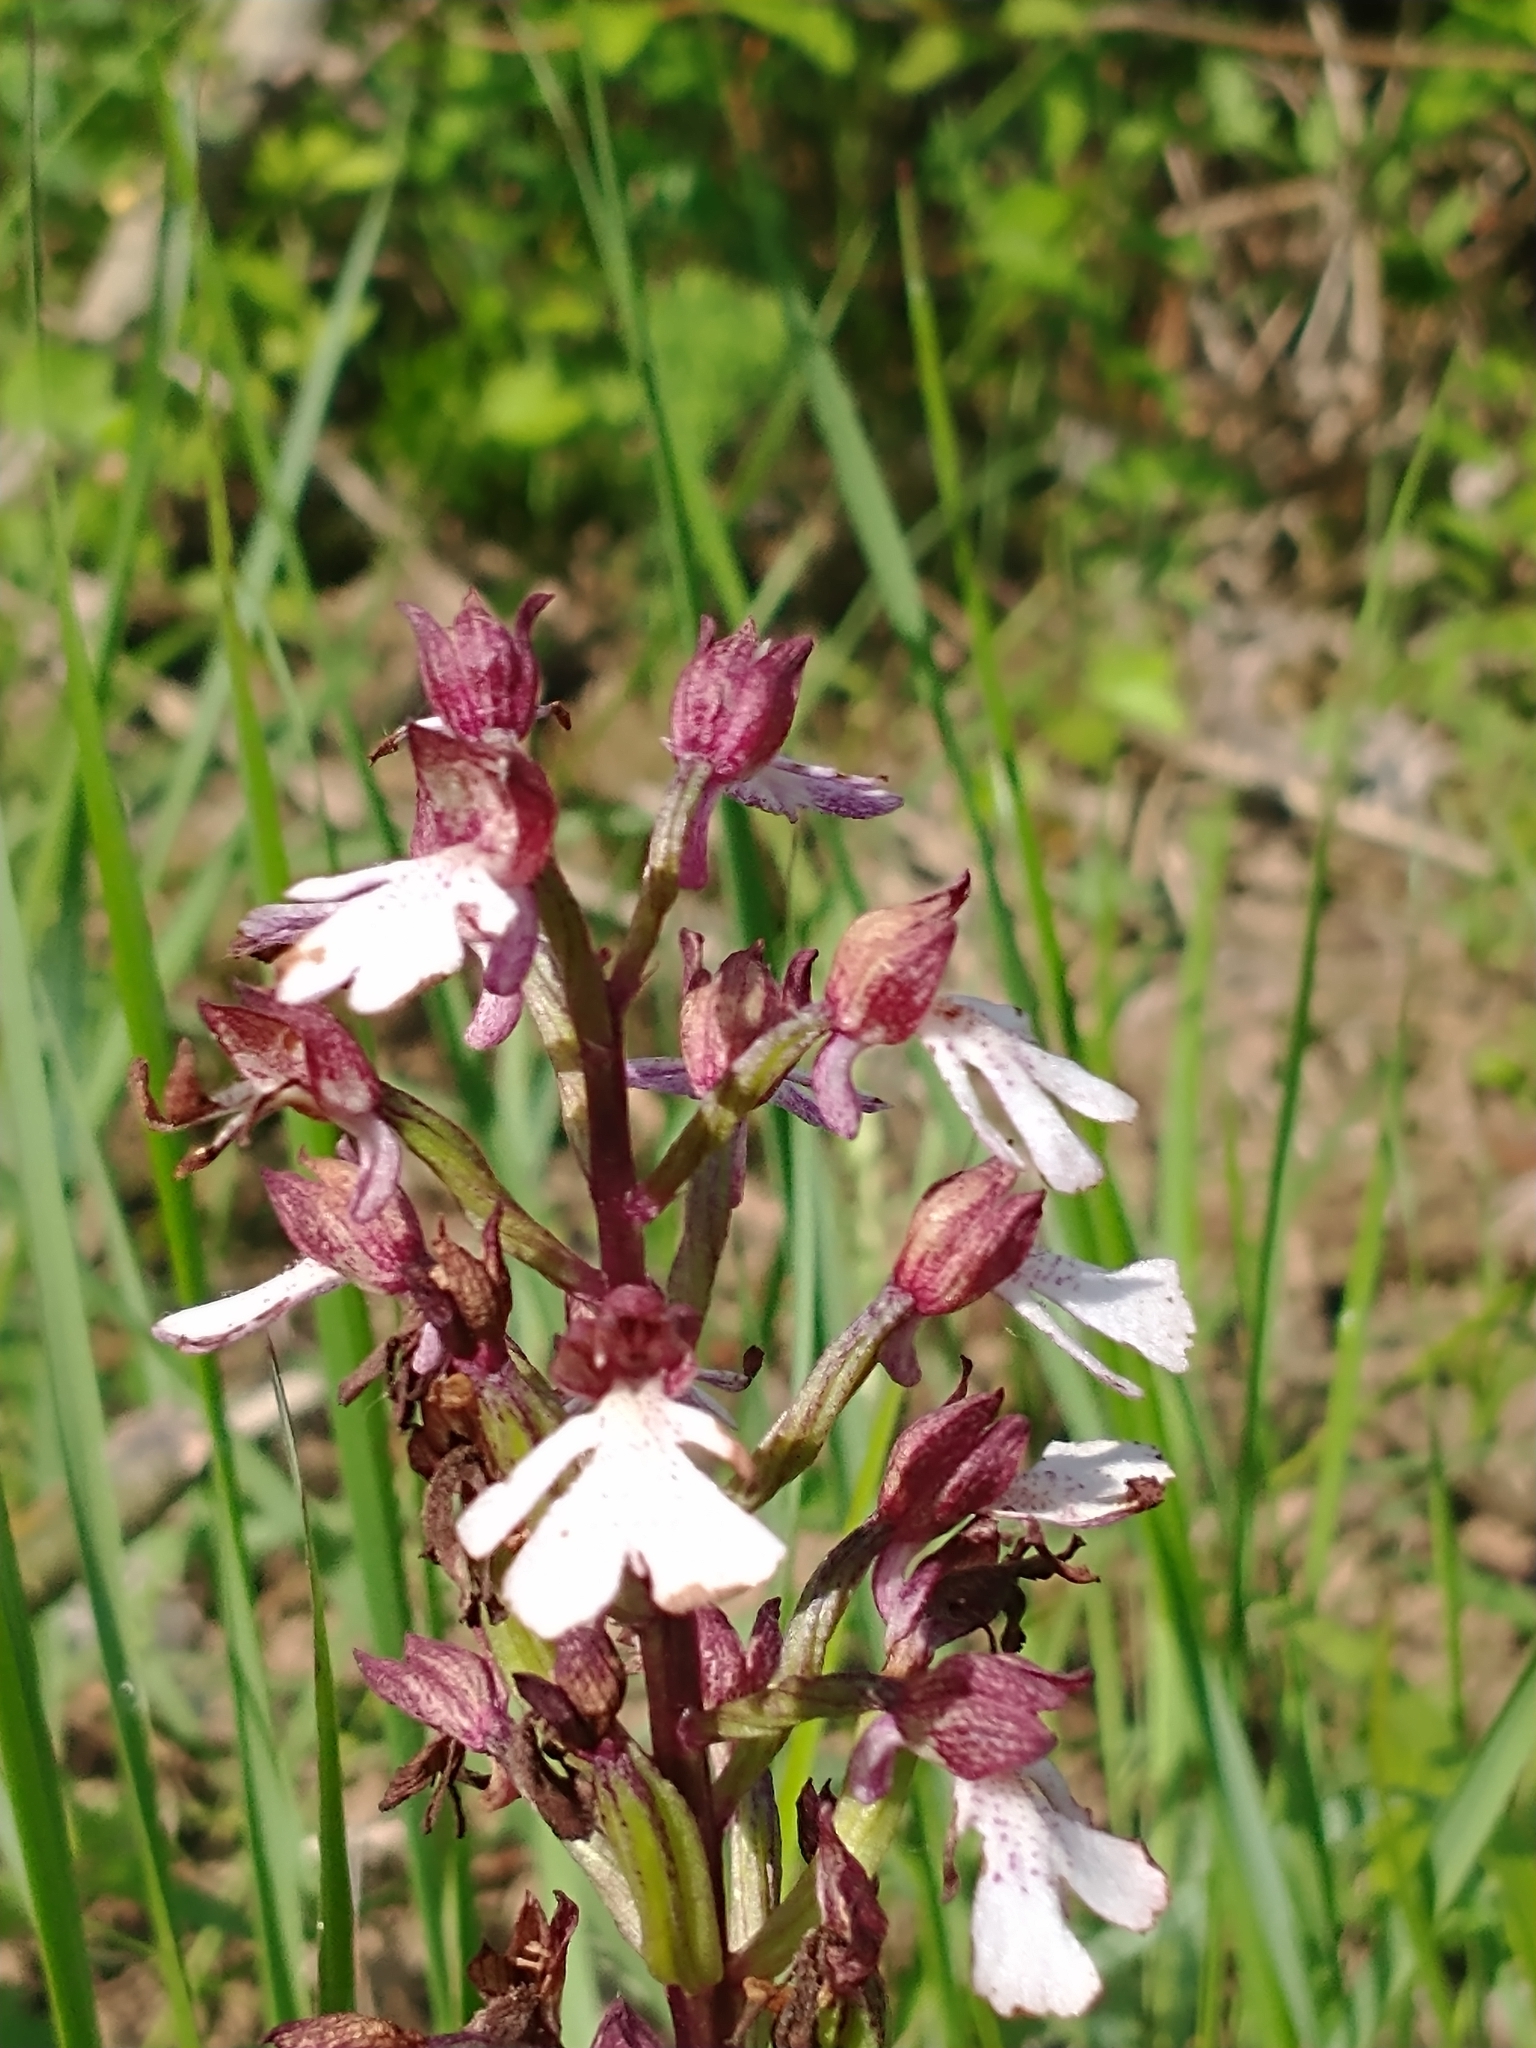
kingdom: Plantae
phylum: Tracheophyta
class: Liliopsida
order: Asparagales
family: Orchidaceae
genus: Orchis
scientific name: Orchis purpurea
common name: Lady orchid
